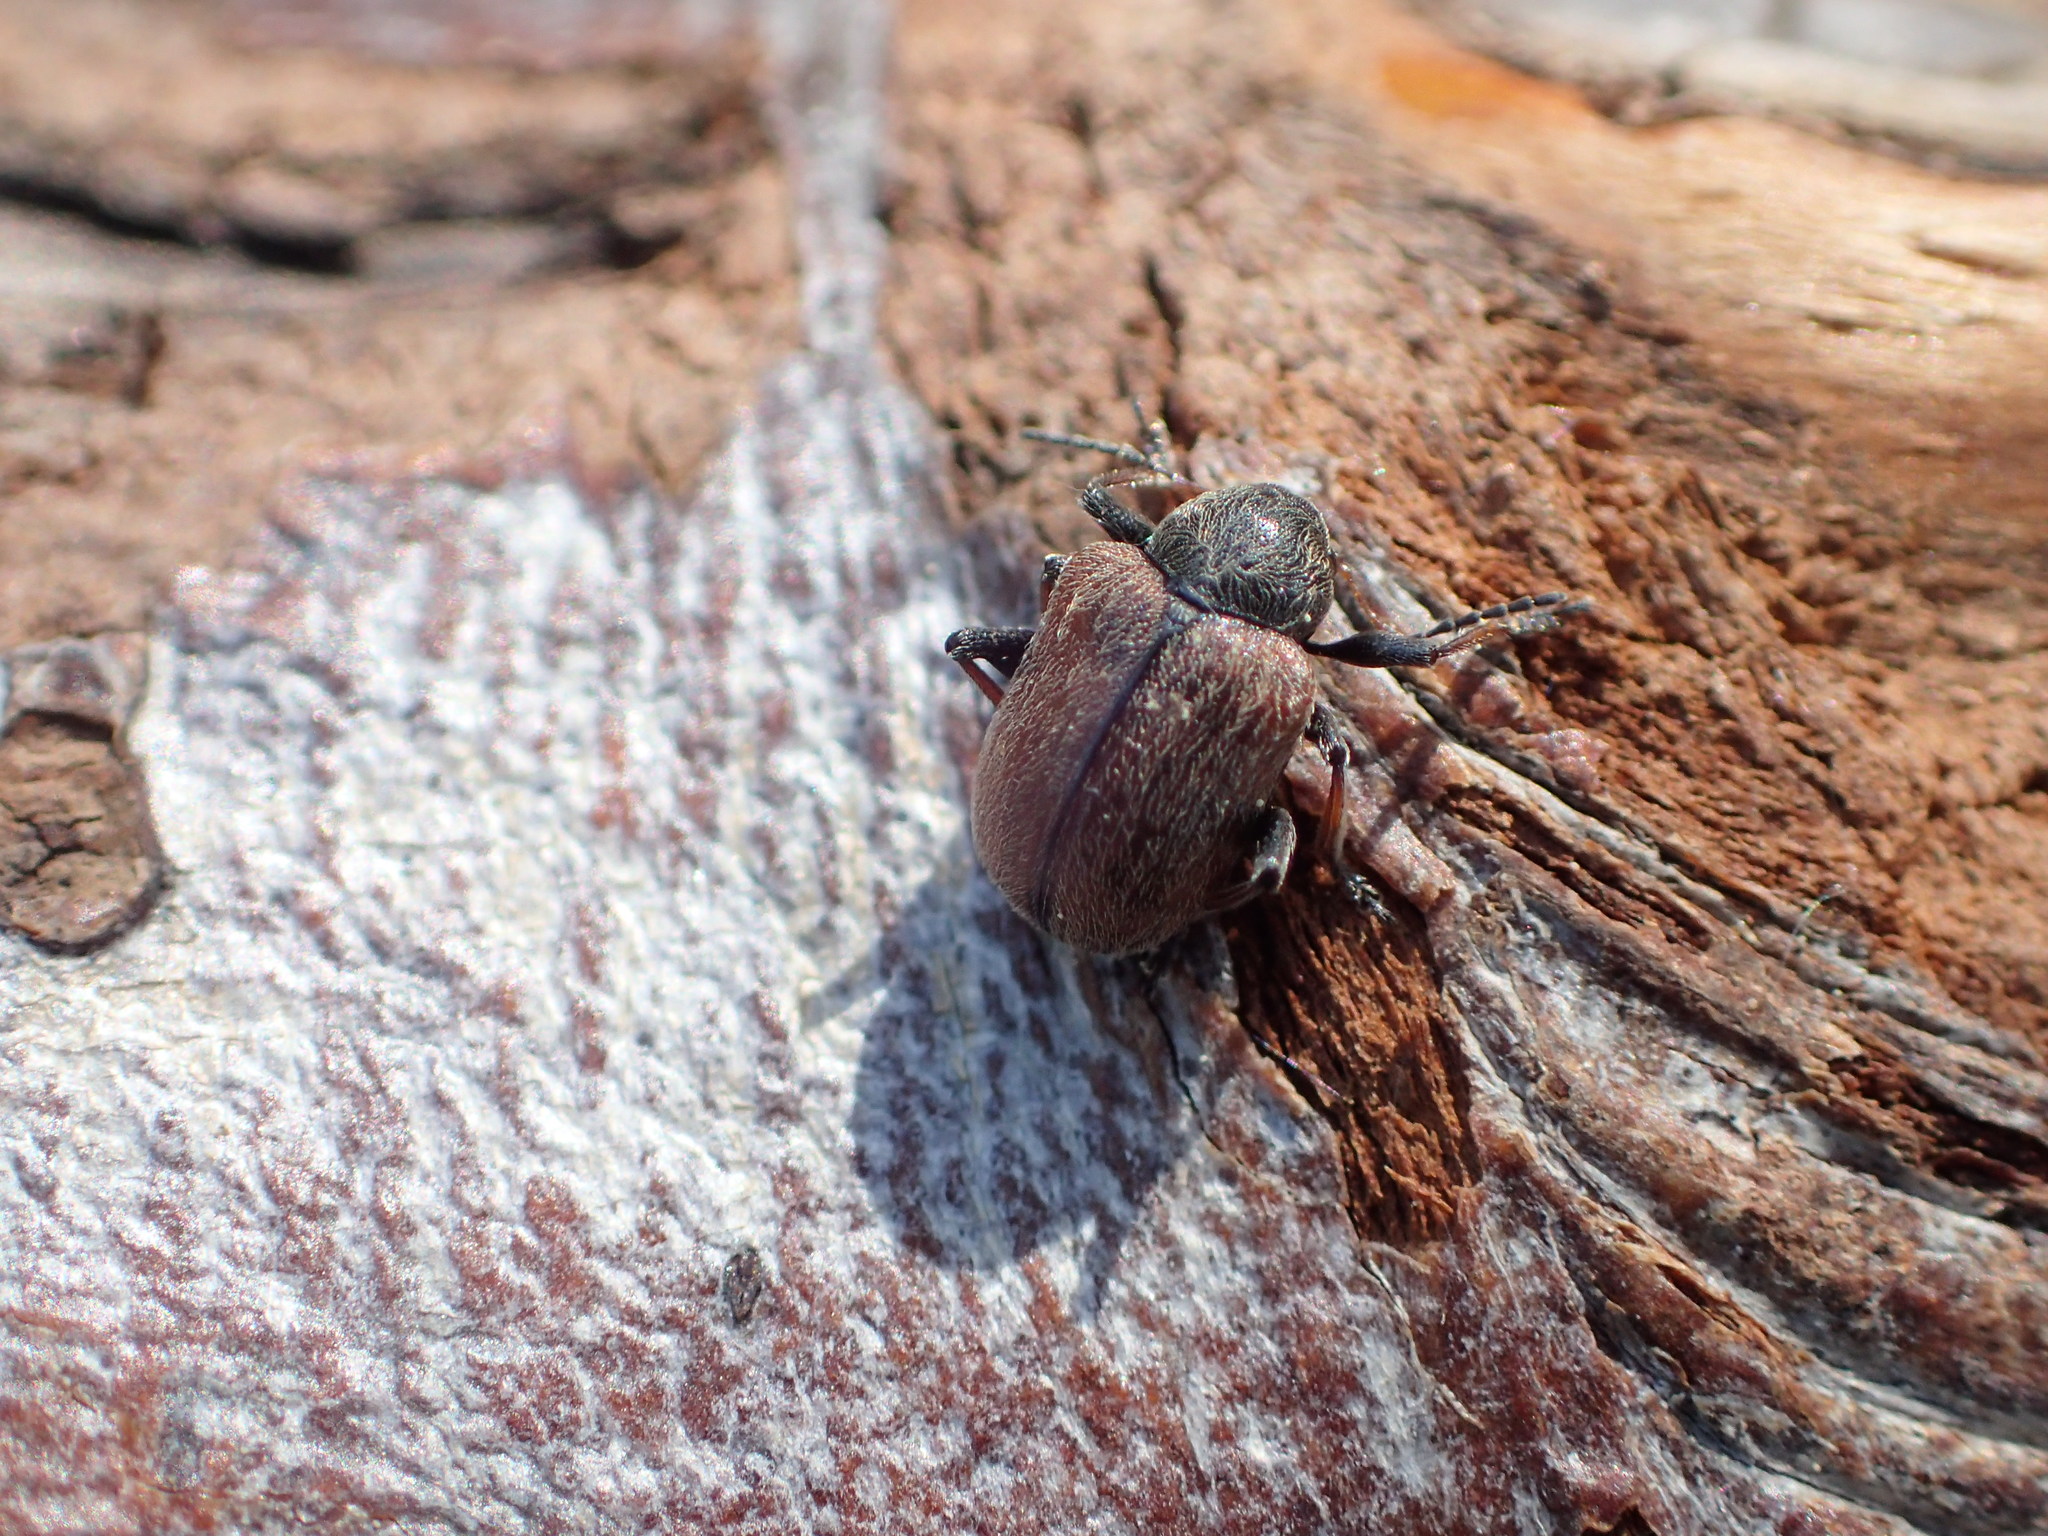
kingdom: Animalia
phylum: Arthropoda
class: Insecta
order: Coleoptera
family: Chrysomelidae
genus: Bromius
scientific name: Bromius obscurus
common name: Western grape rootworm
